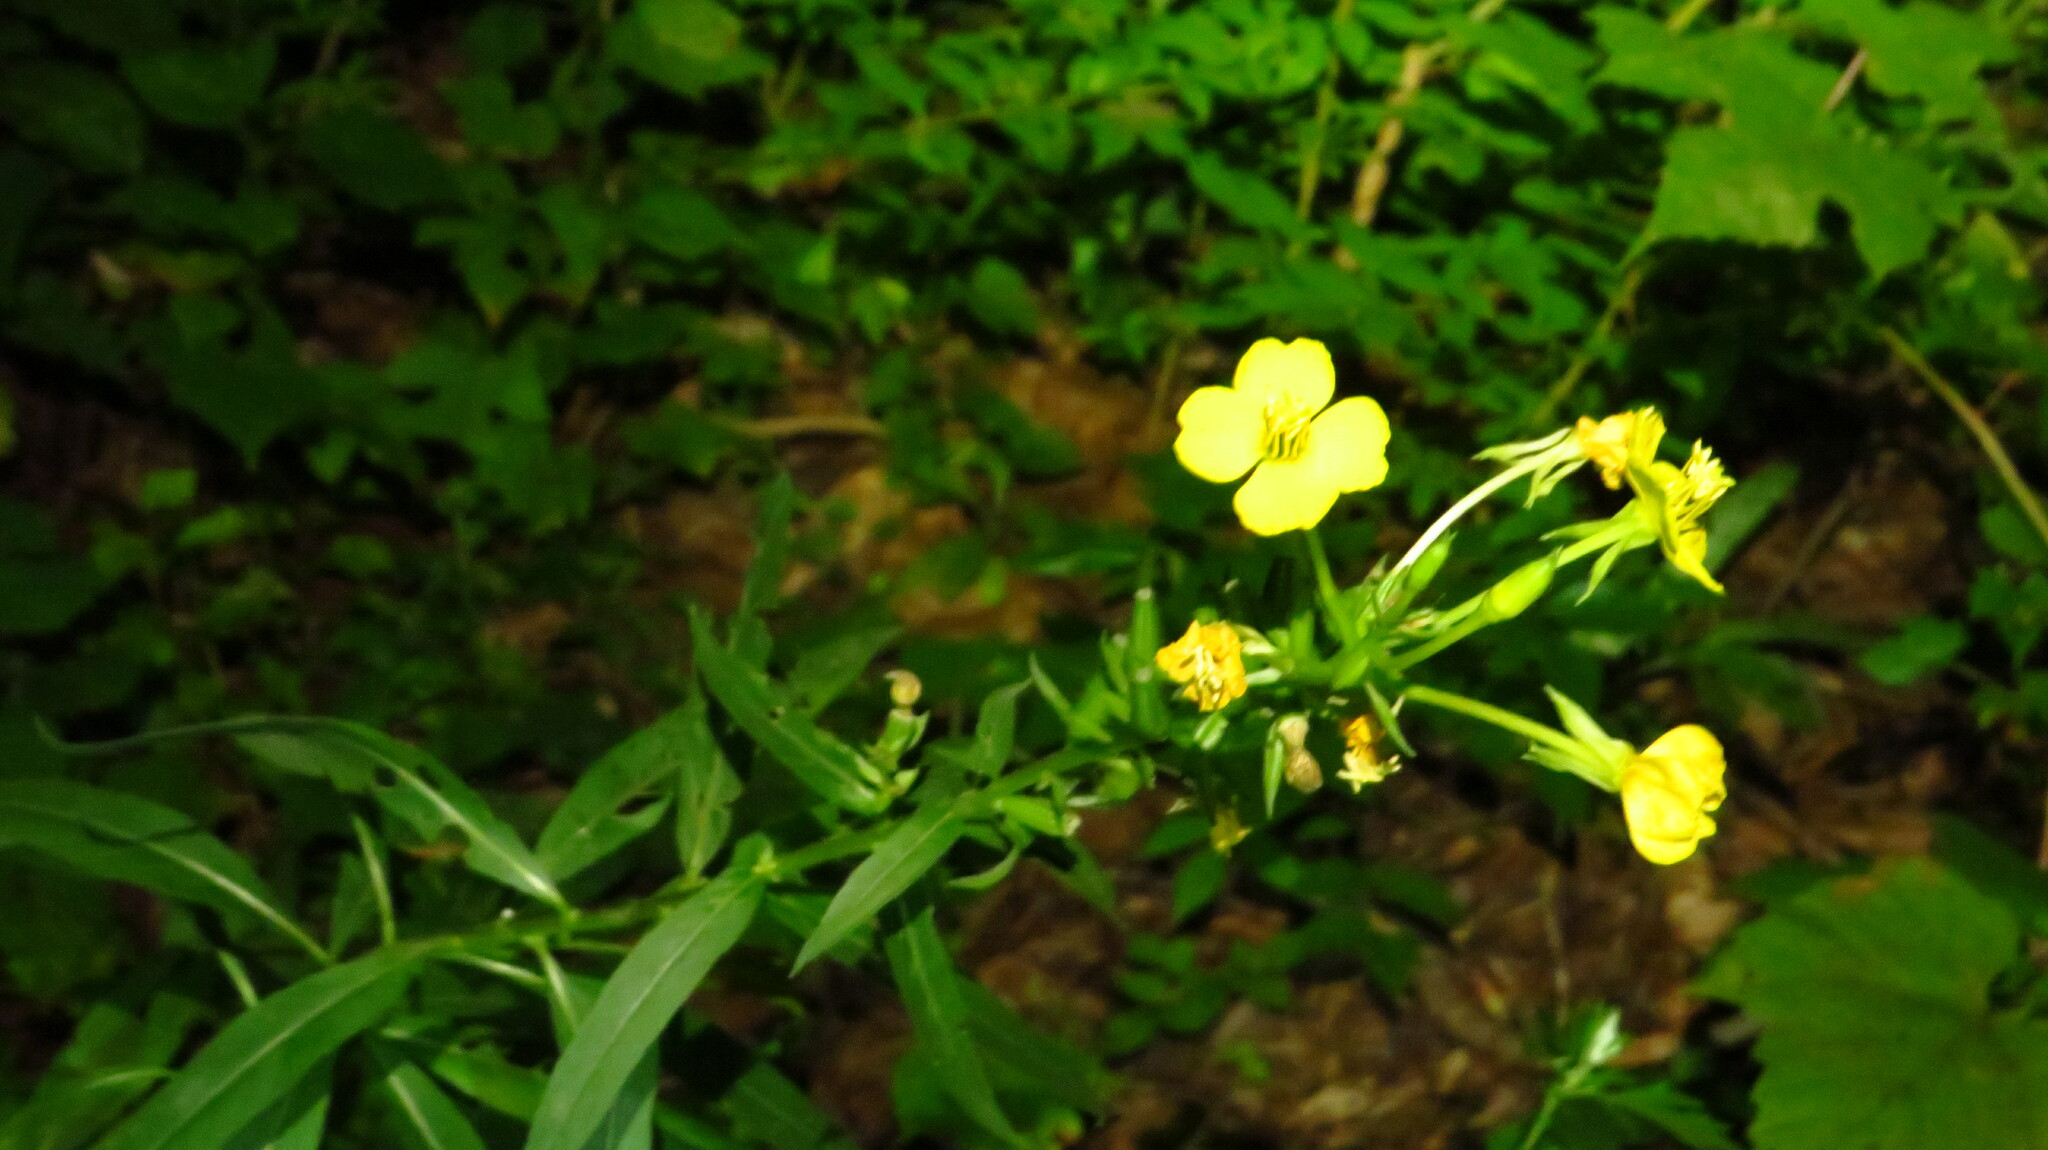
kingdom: Plantae
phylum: Tracheophyta
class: Magnoliopsida
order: Myrtales
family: Onagraceae
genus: Oenothera
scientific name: Oenothera parviflora
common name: Least evening-primrose
